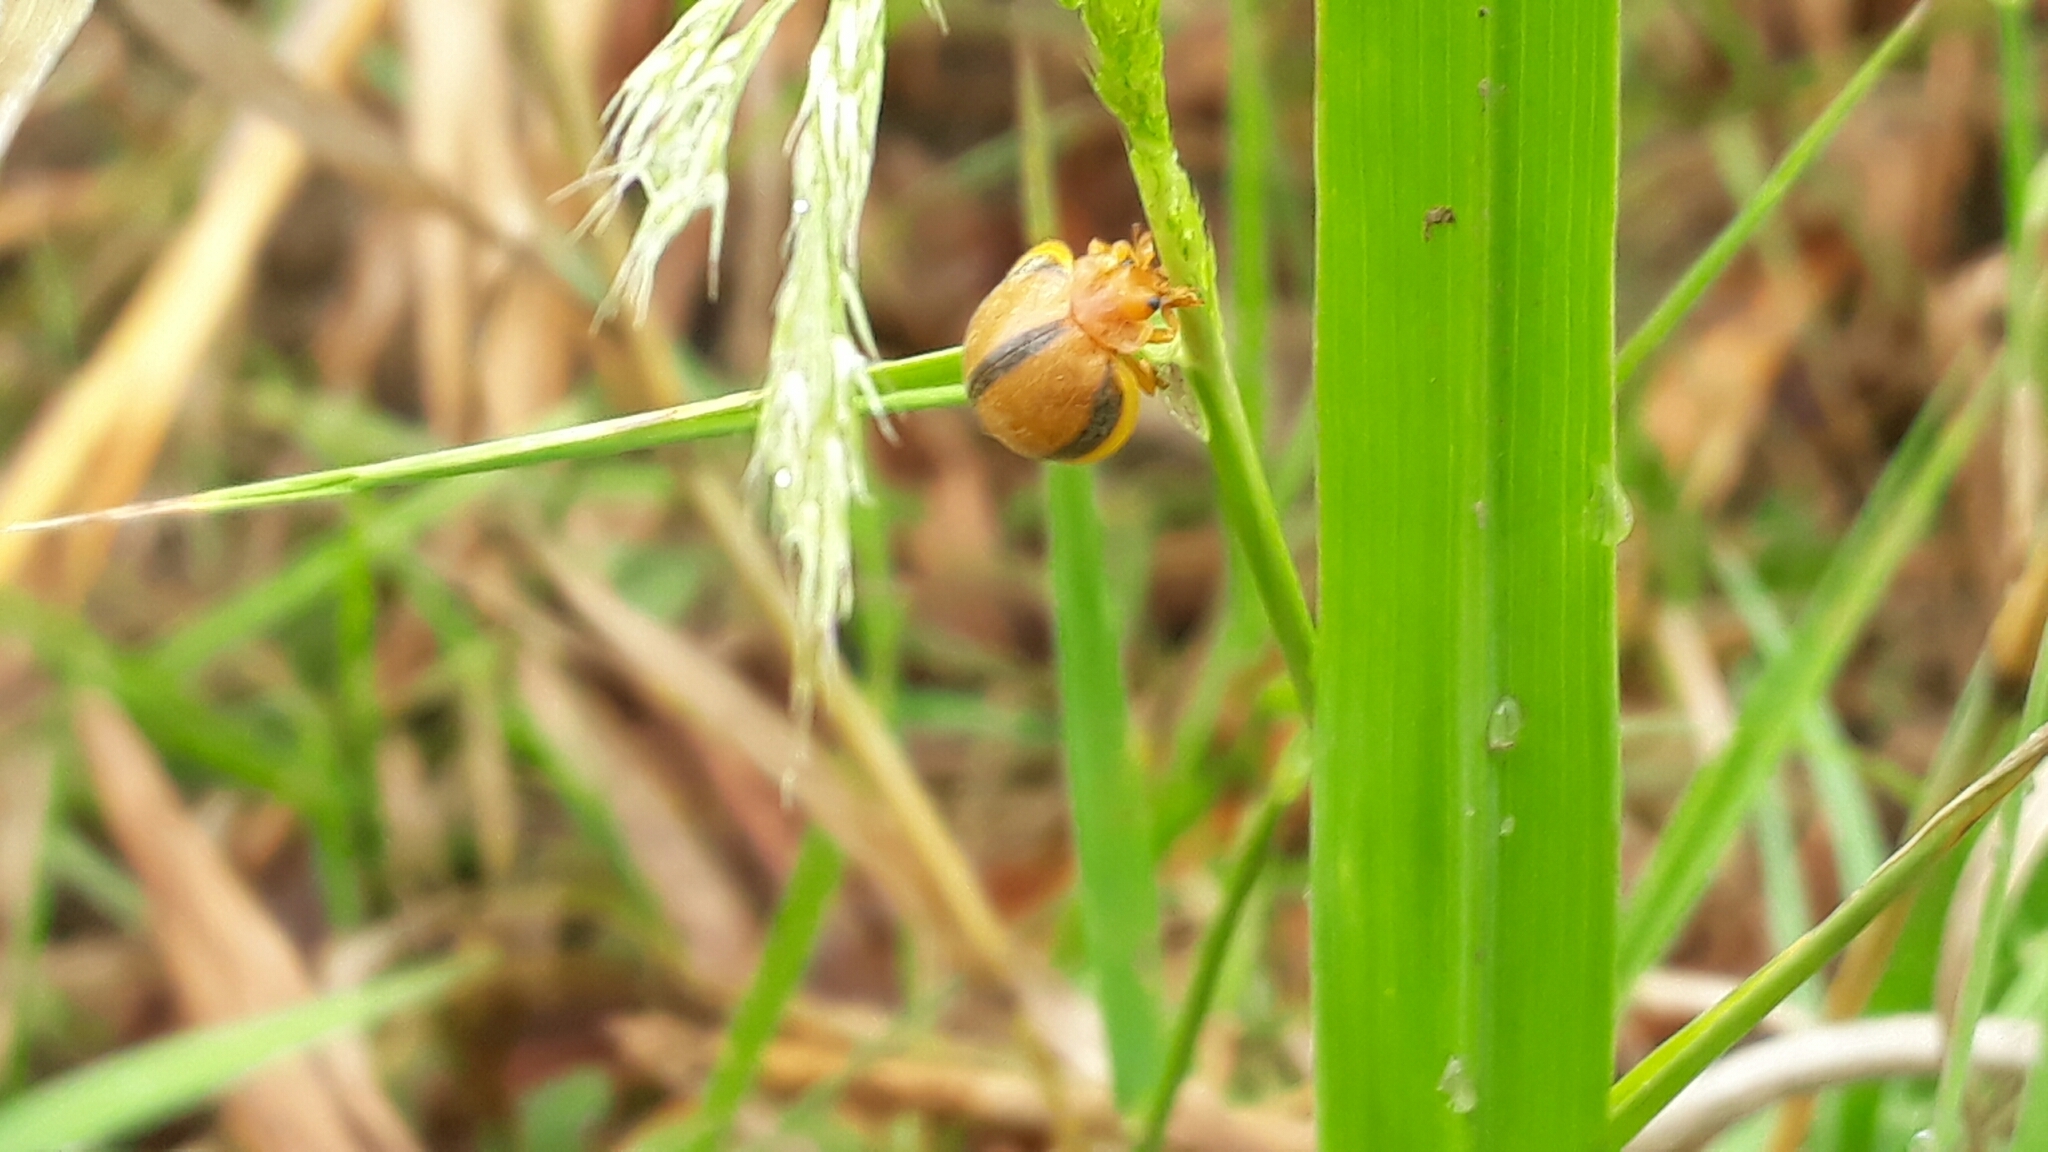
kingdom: Animalia
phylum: Arthropoda
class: Insecta
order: Coleoptera
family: Coccinellidae
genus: Epilachna
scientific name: Epilachna cacica
